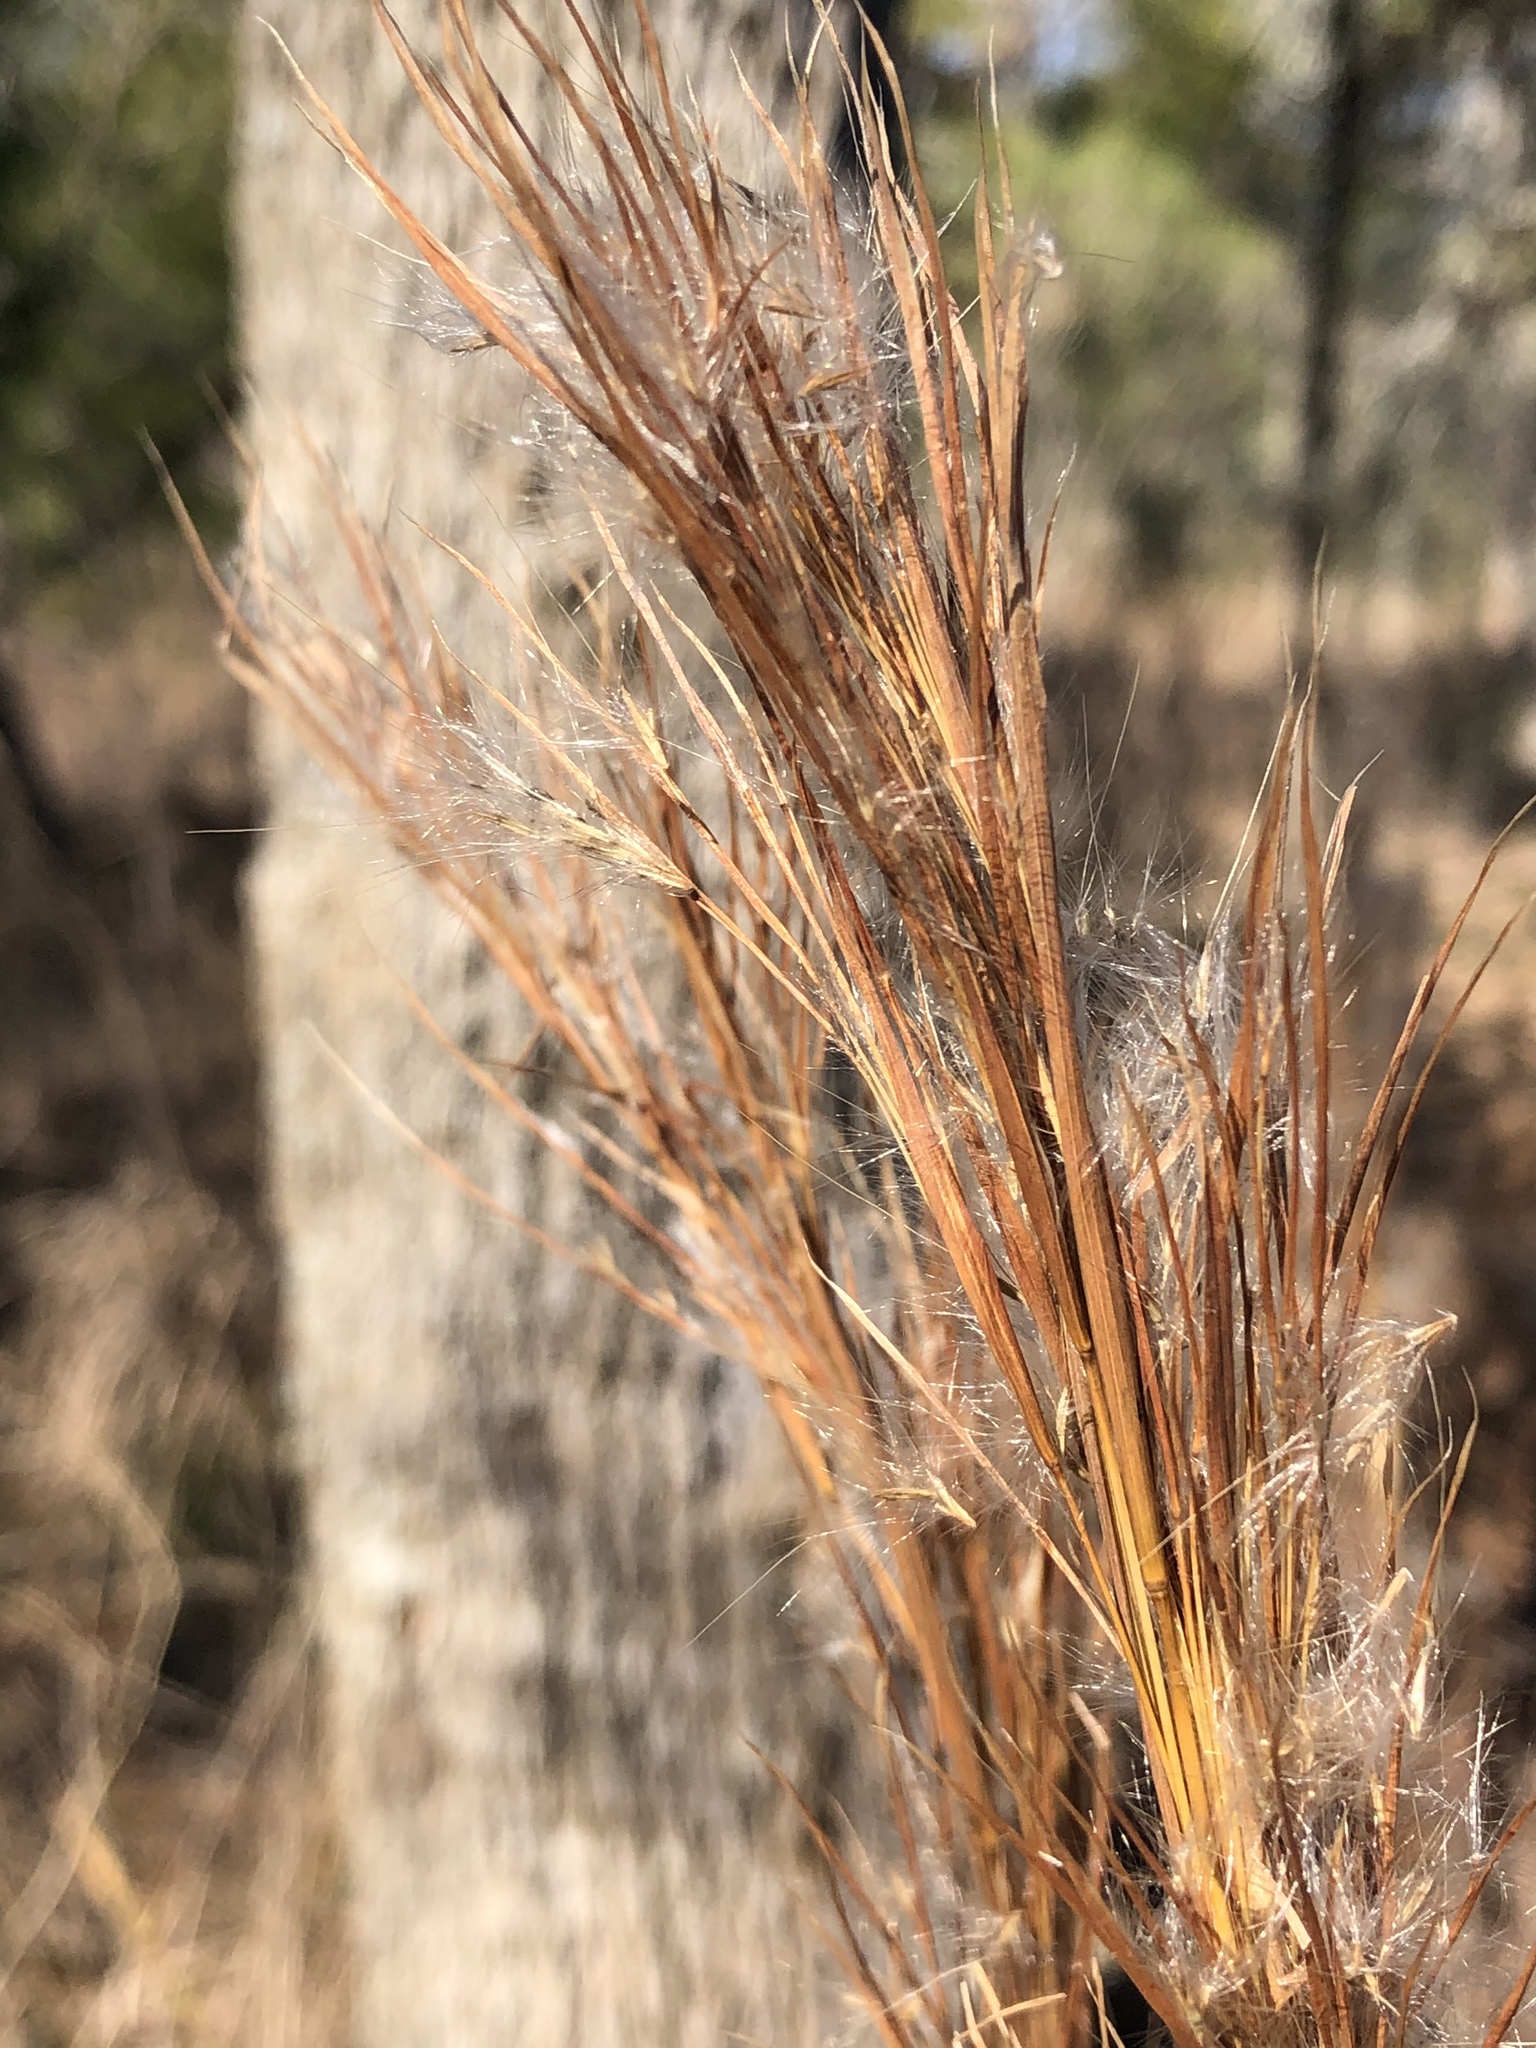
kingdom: Plantae
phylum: Tracheophyta
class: Liliopsida
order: Poales
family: Poaceae
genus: Andropogon
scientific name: Andropogon tenuispatheus
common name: Bushy bluestem
